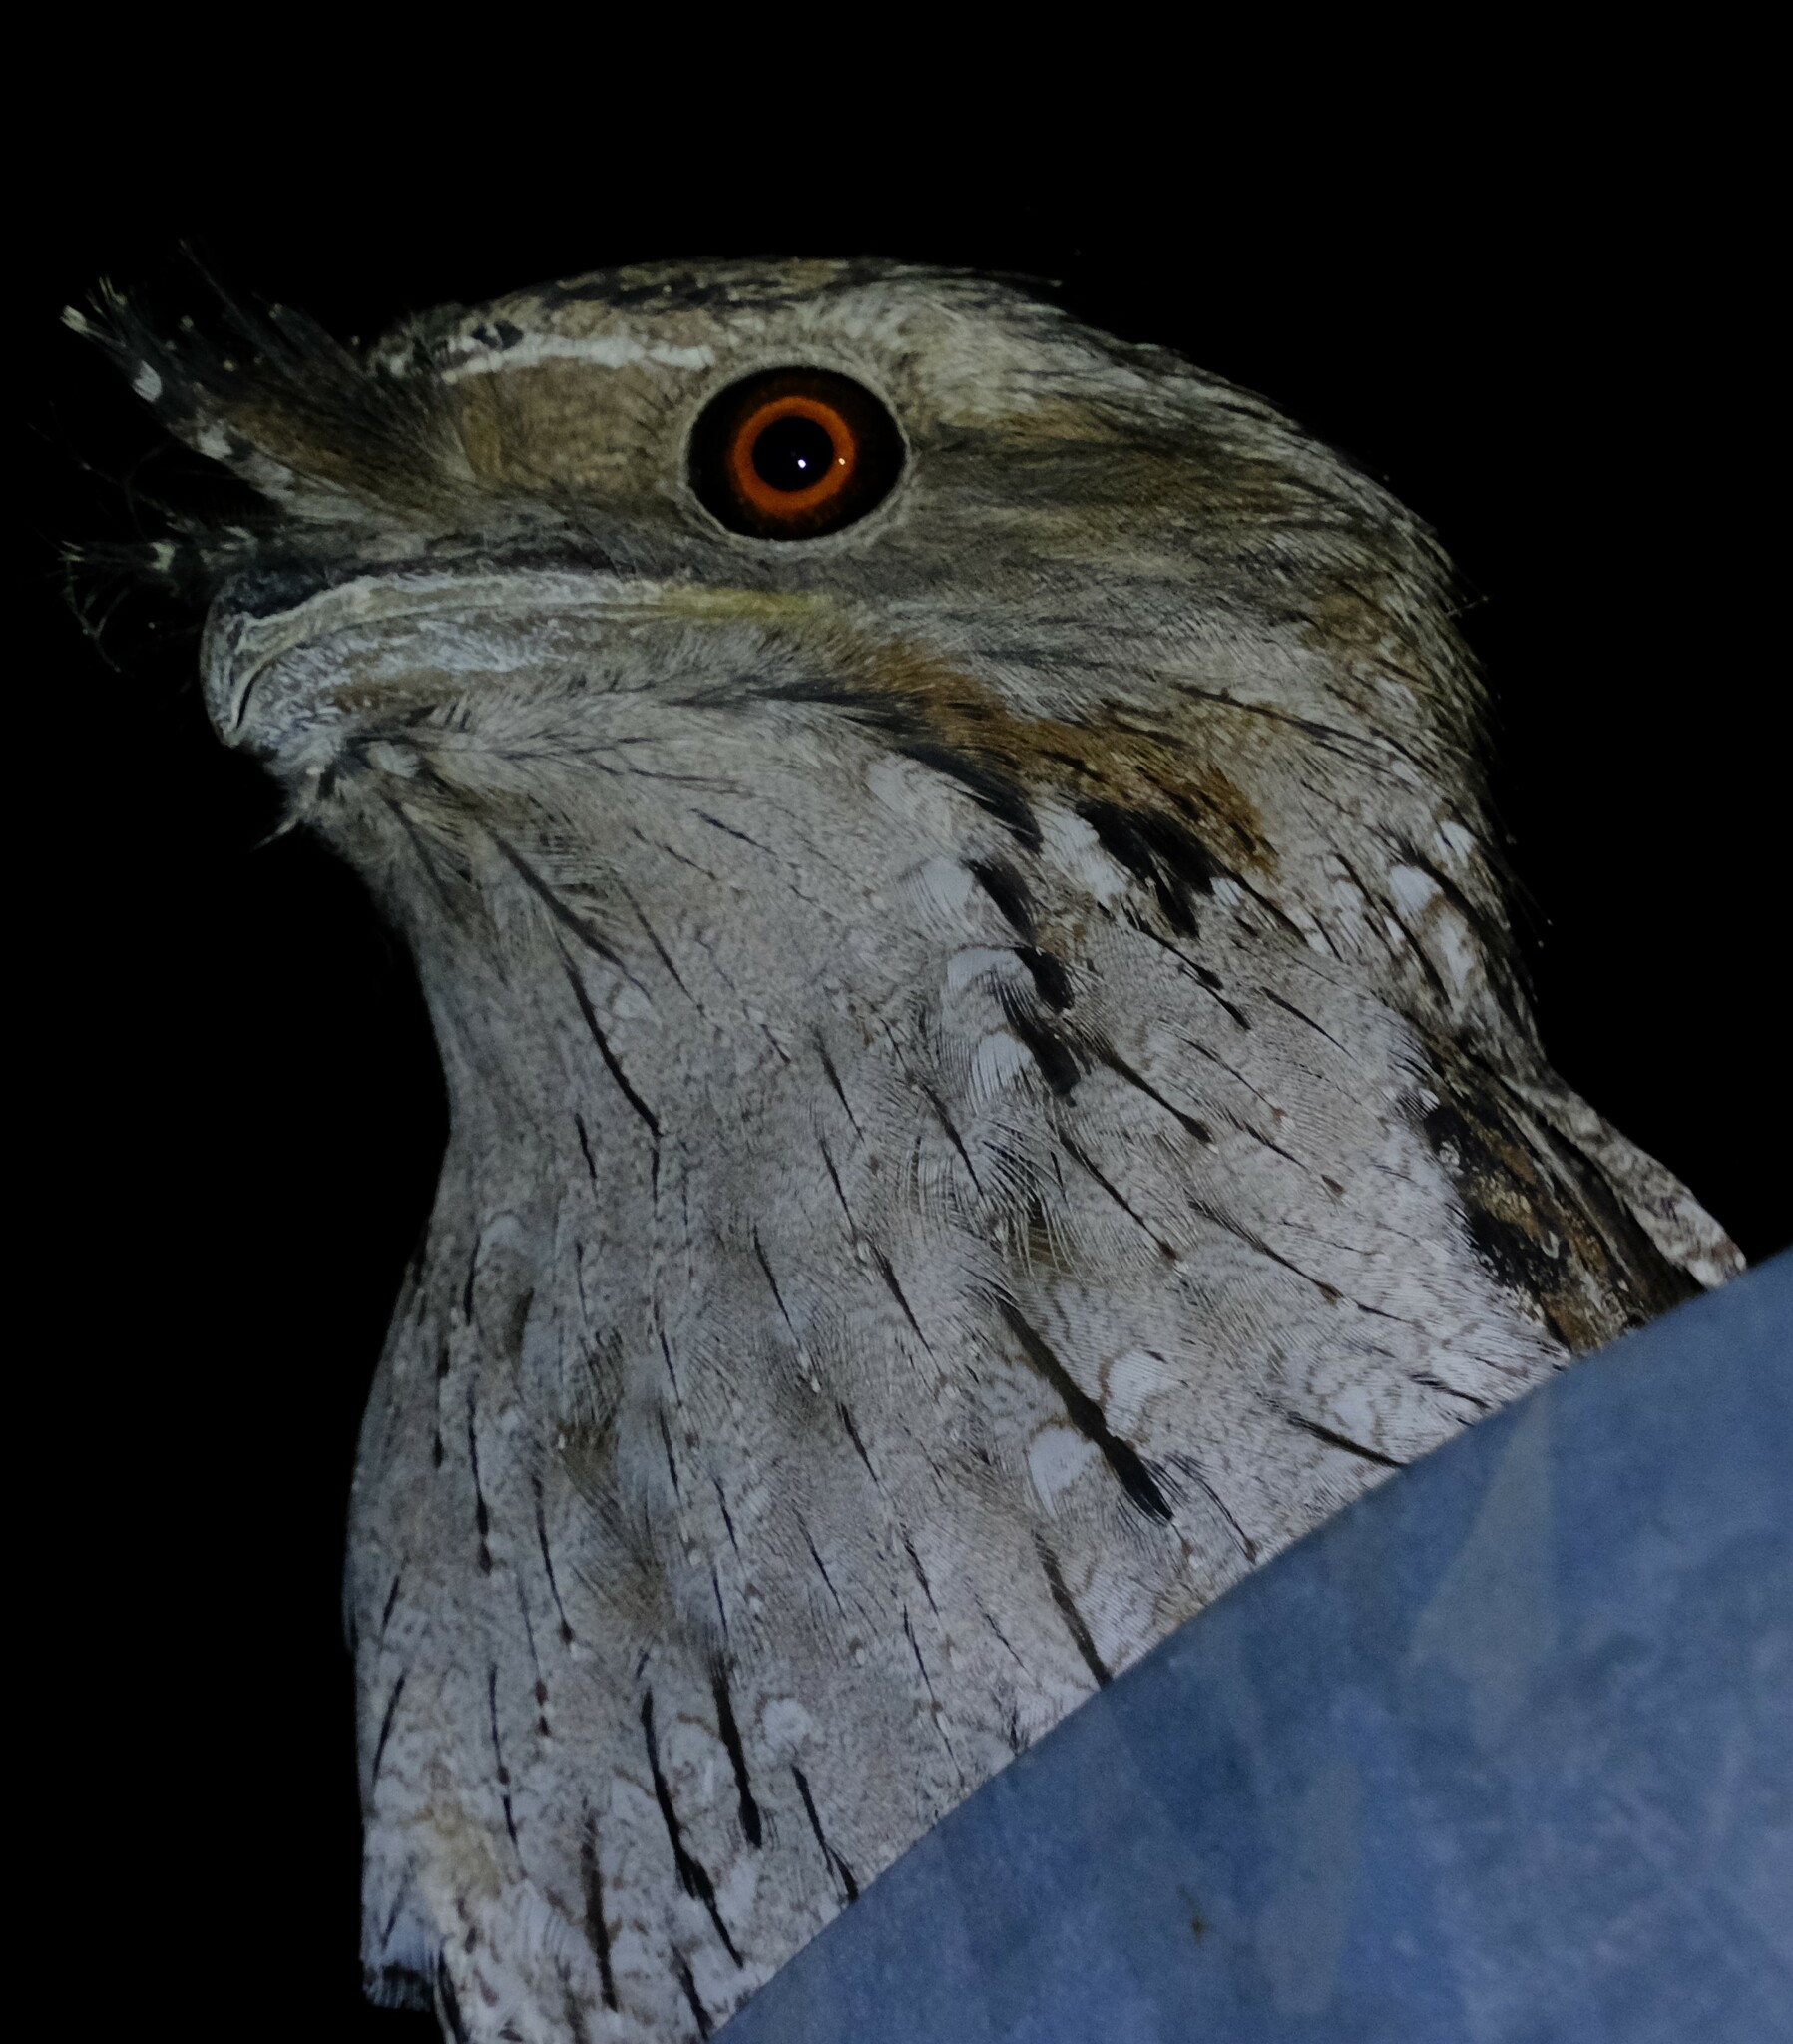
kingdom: Animalia
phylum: Chordata
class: Aves
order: Caprimulgiformes
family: Podargidae
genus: Podargus
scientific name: Podargus strigoides
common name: Tawny frogmouth
